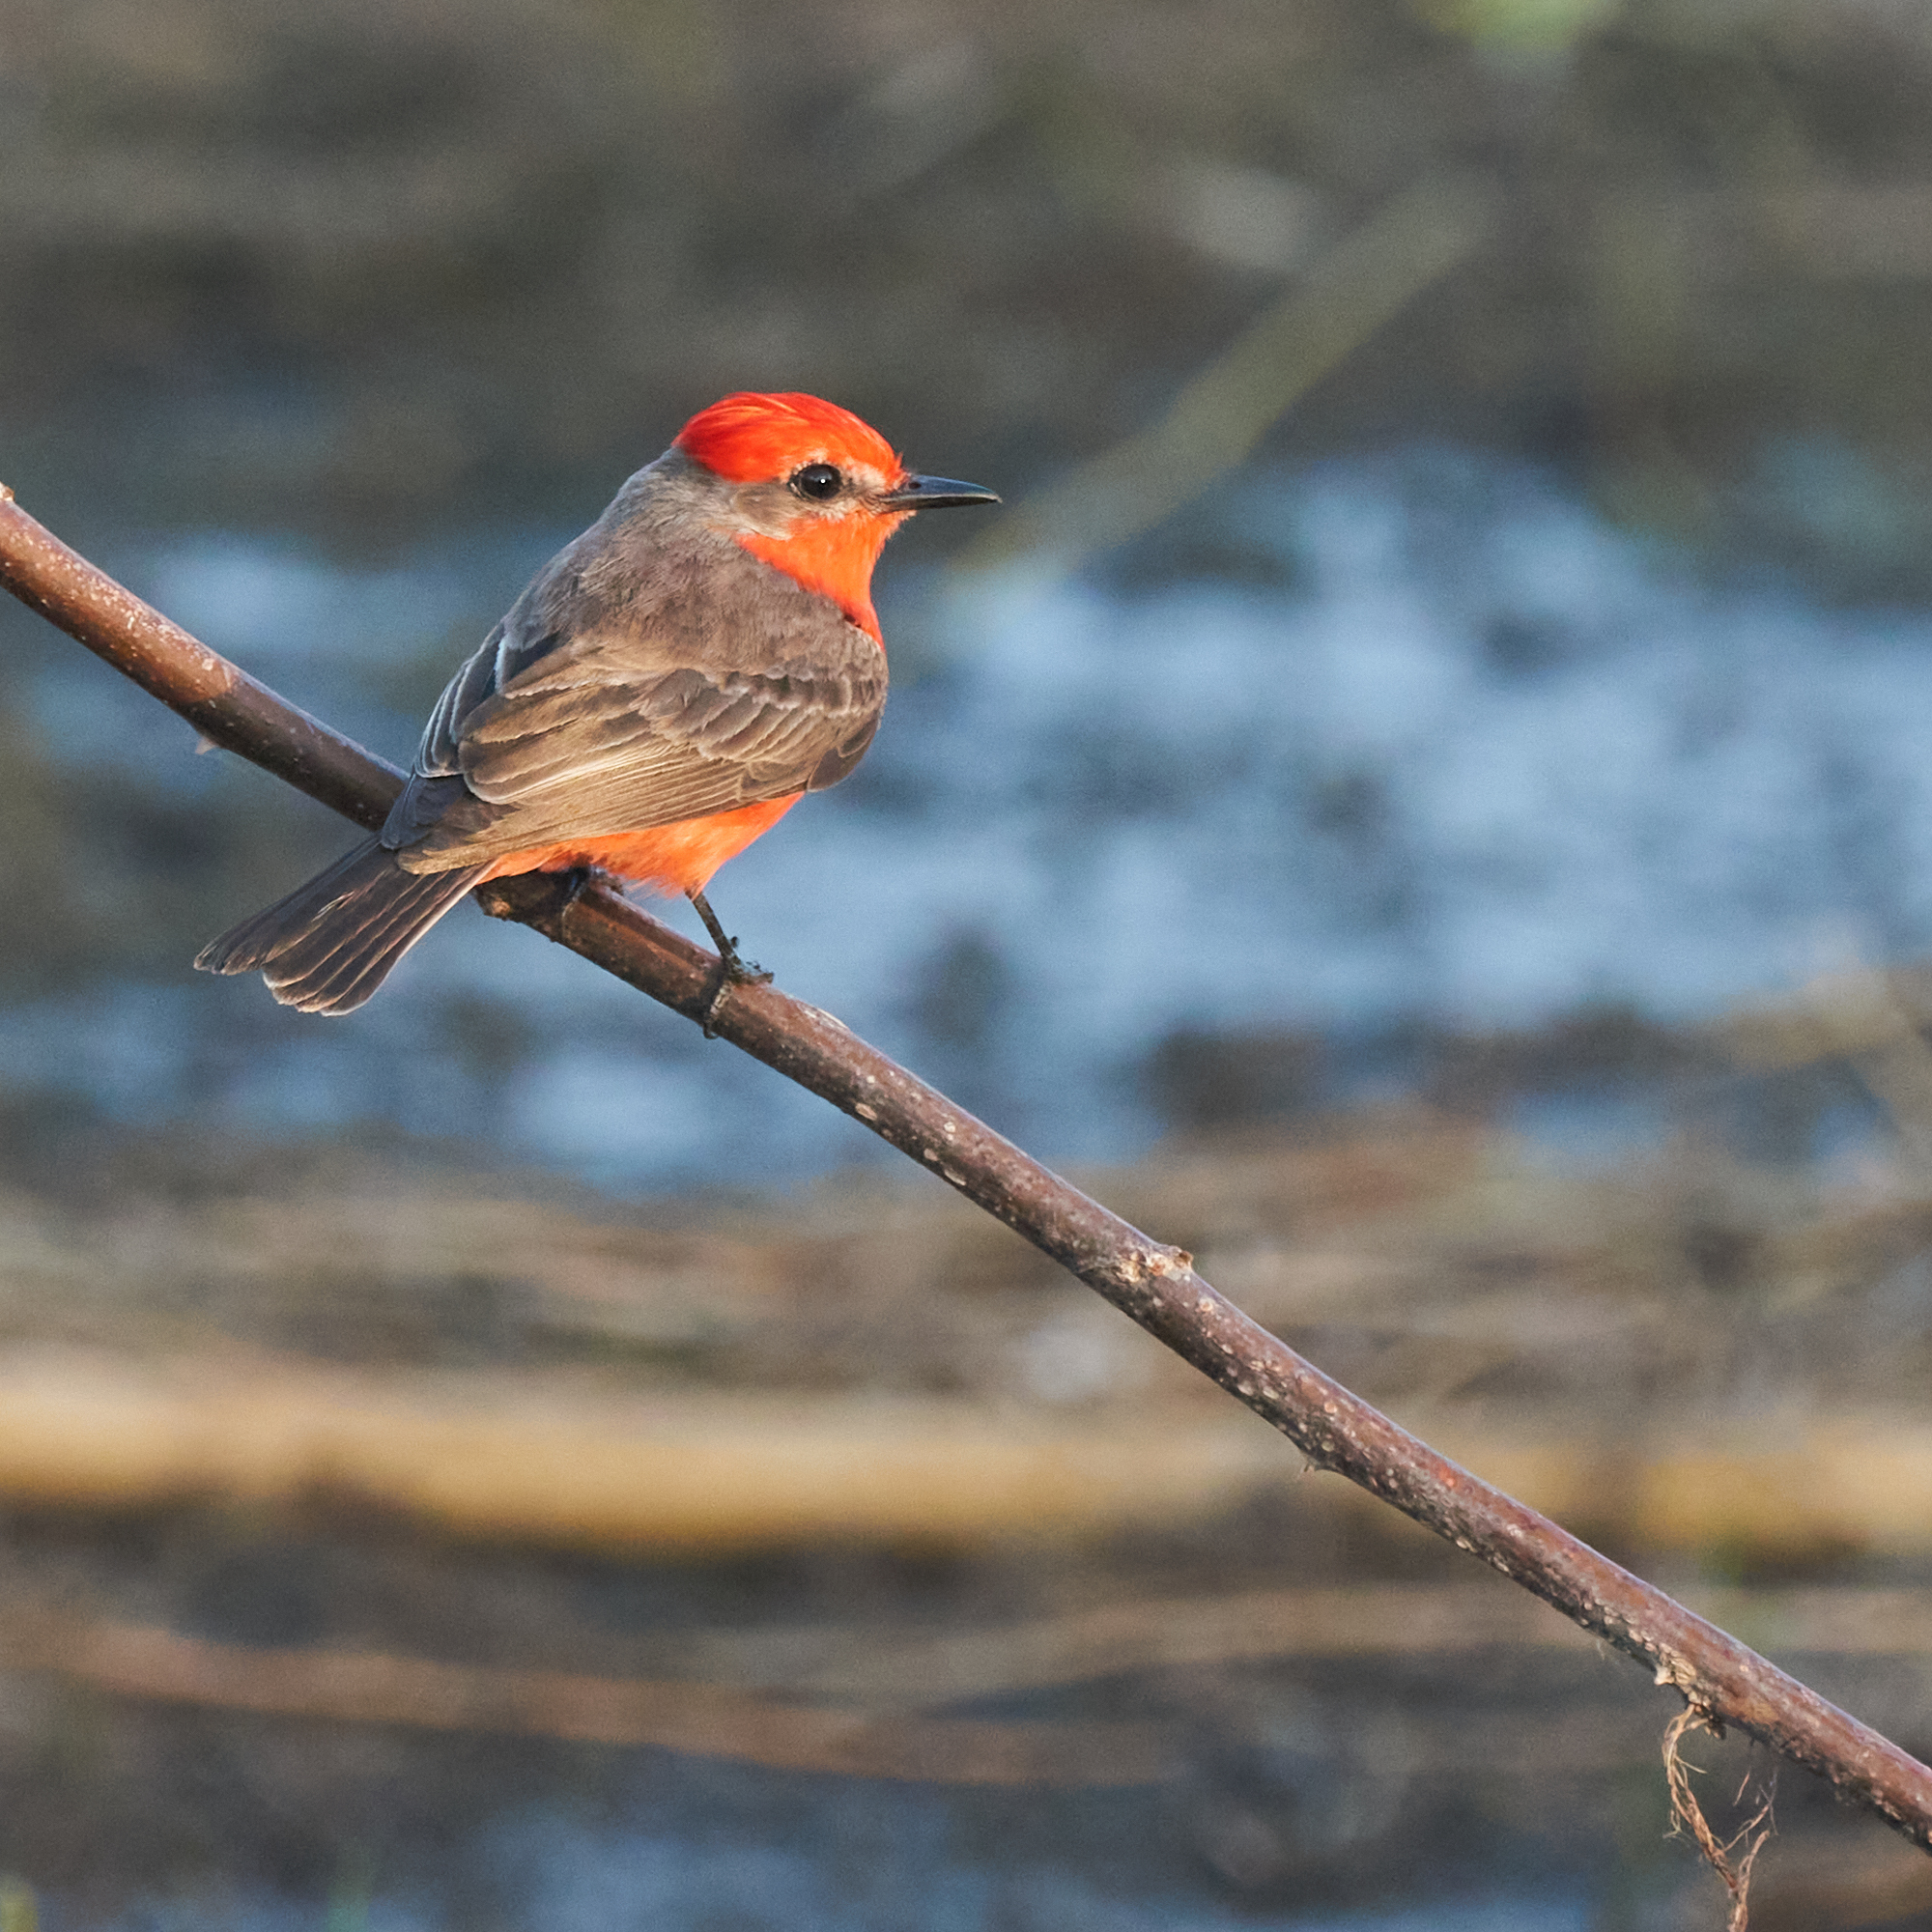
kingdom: Animalia
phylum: Chordata
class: Aves
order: Passeriformes
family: Tyrannidae
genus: Pyrocephalus
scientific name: Pyrocephalus rubinus
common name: Vermilion flycatcher
